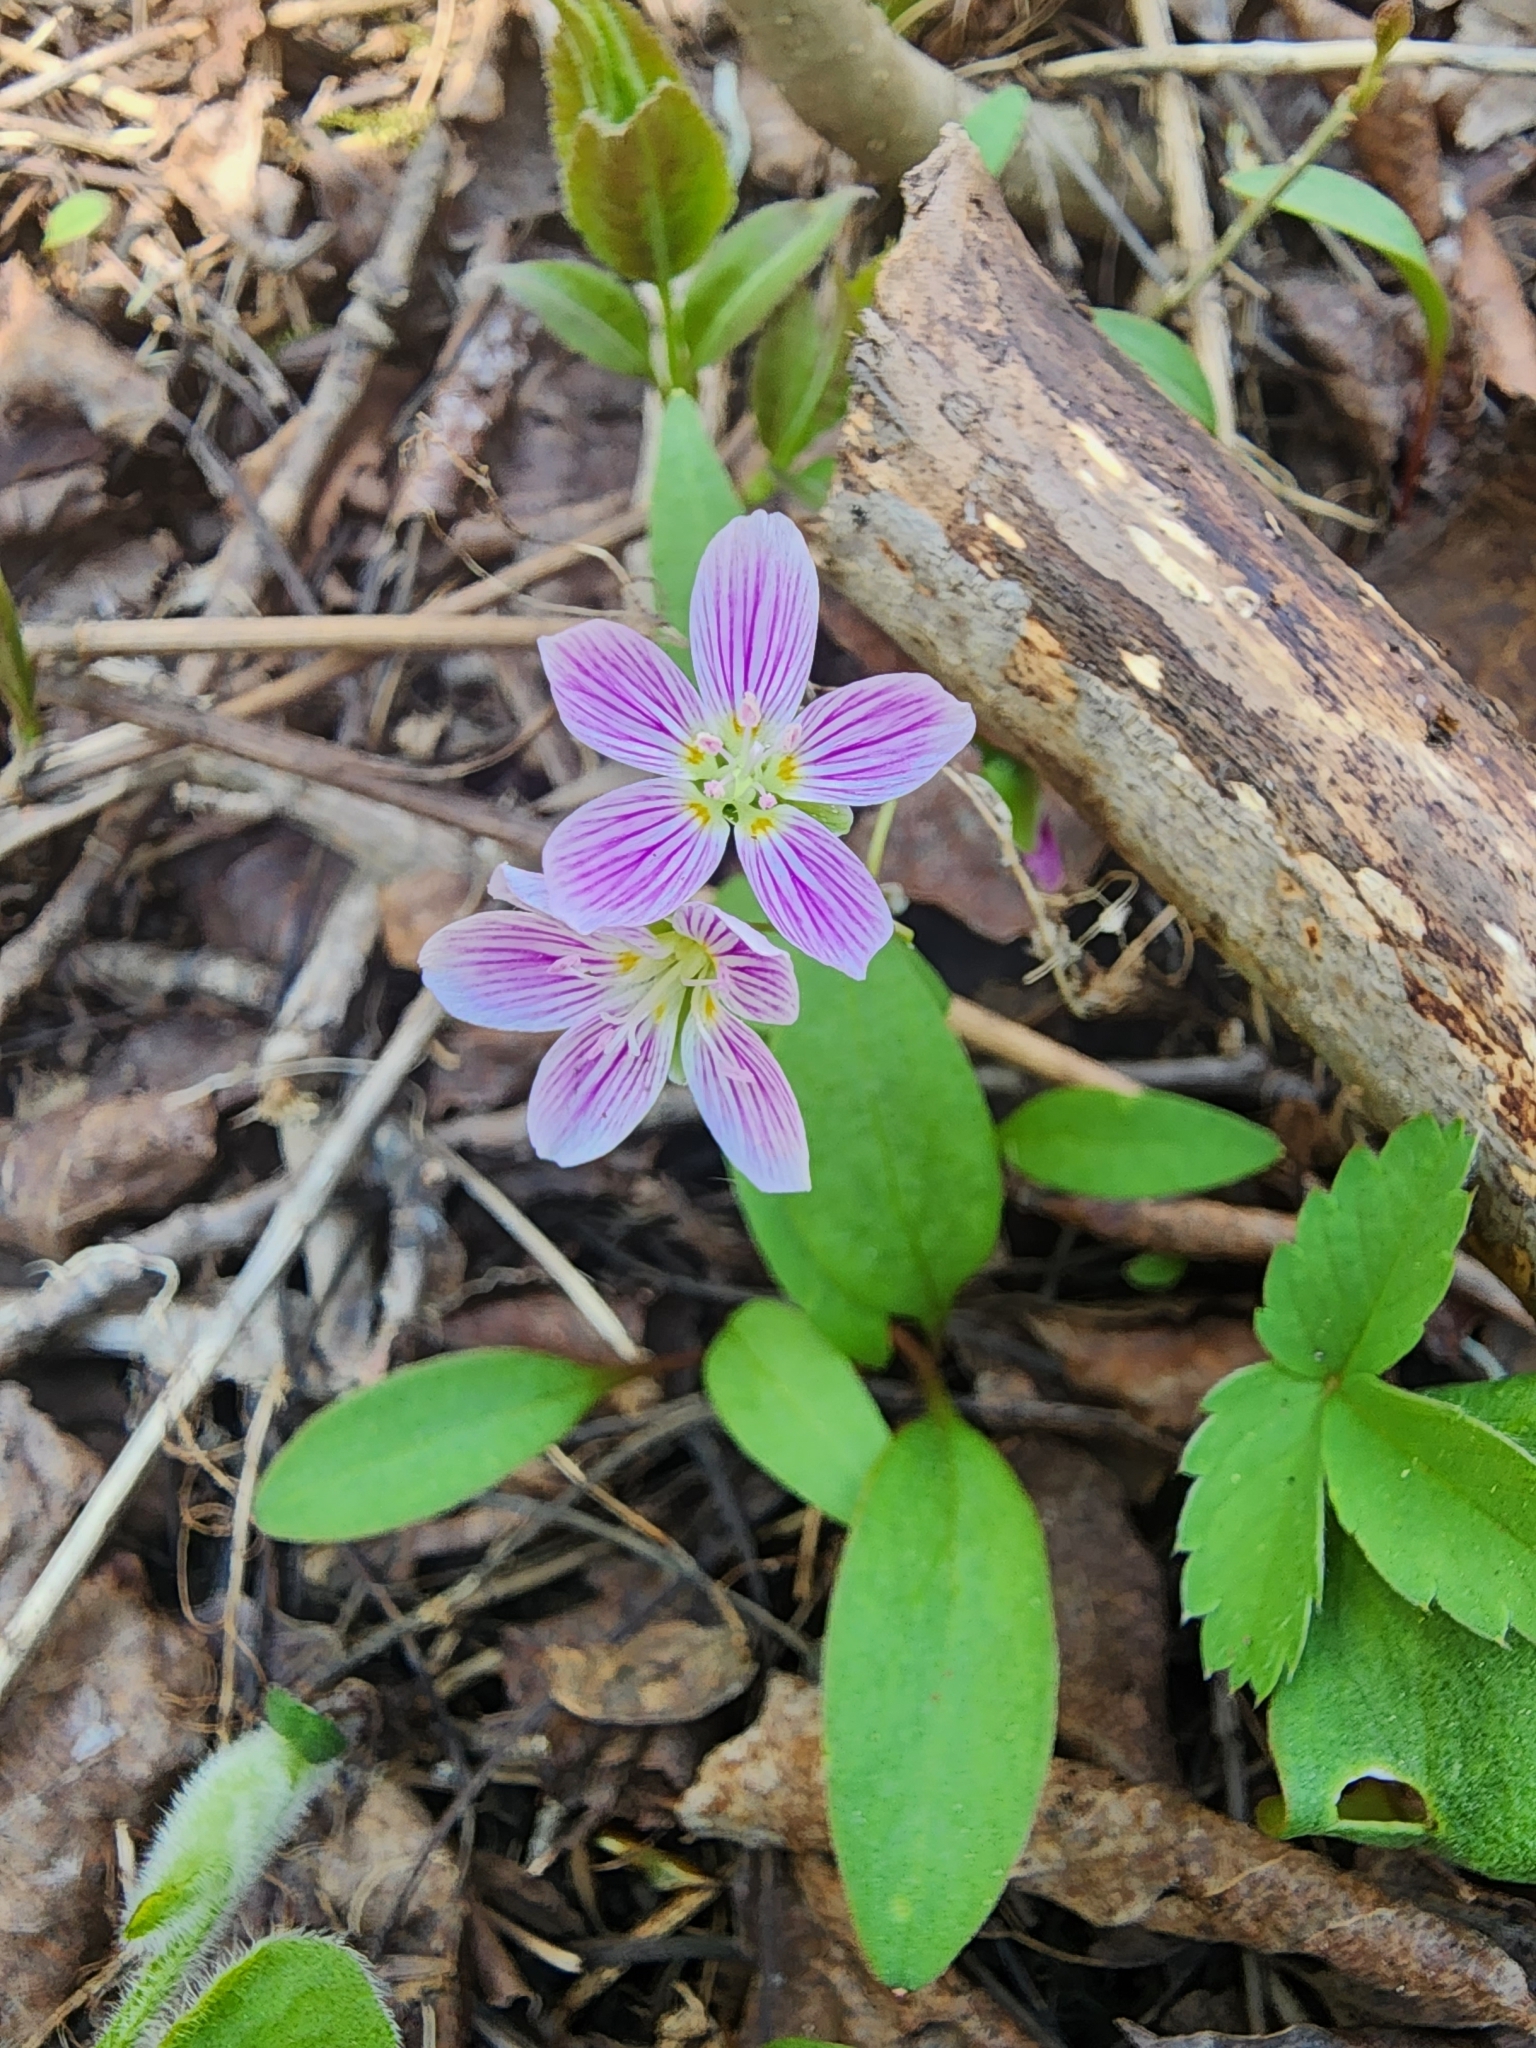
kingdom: Plantae
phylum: Tracheophyta
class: Magnoliopsida
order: Caryophyllales
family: Montiaceae
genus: Claytonia
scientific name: Claytonia caroliniana
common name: Carolina spring beauty
